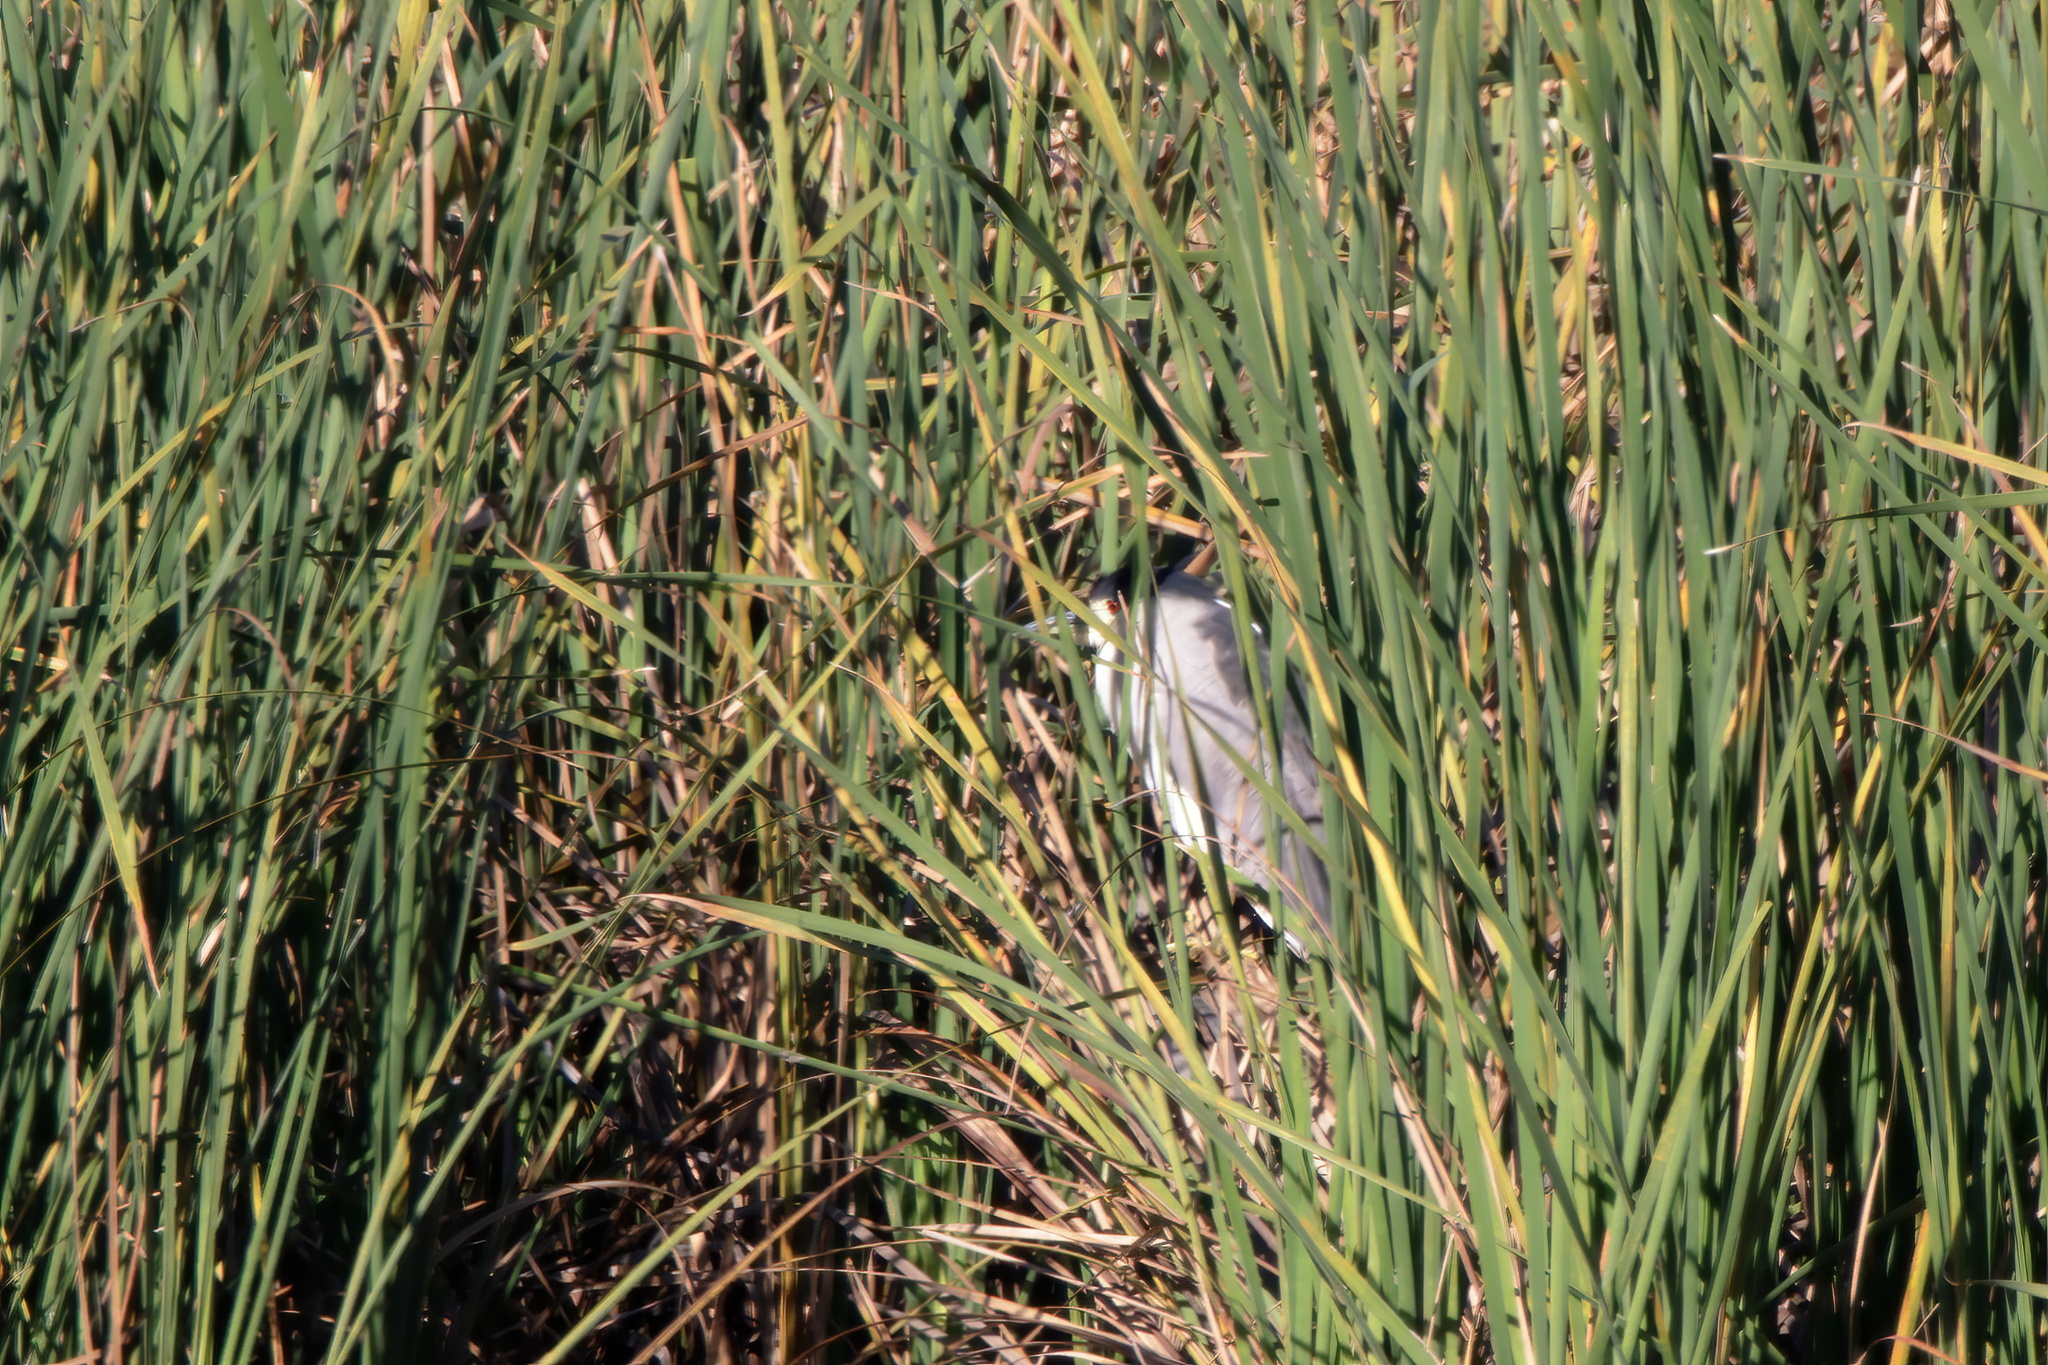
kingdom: Animalia
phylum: Chordata
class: Aves
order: Pelecaniformes
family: Ardeidae
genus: Nycticorax
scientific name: Nycticorax nycticorax
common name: Black-crowned night heron
